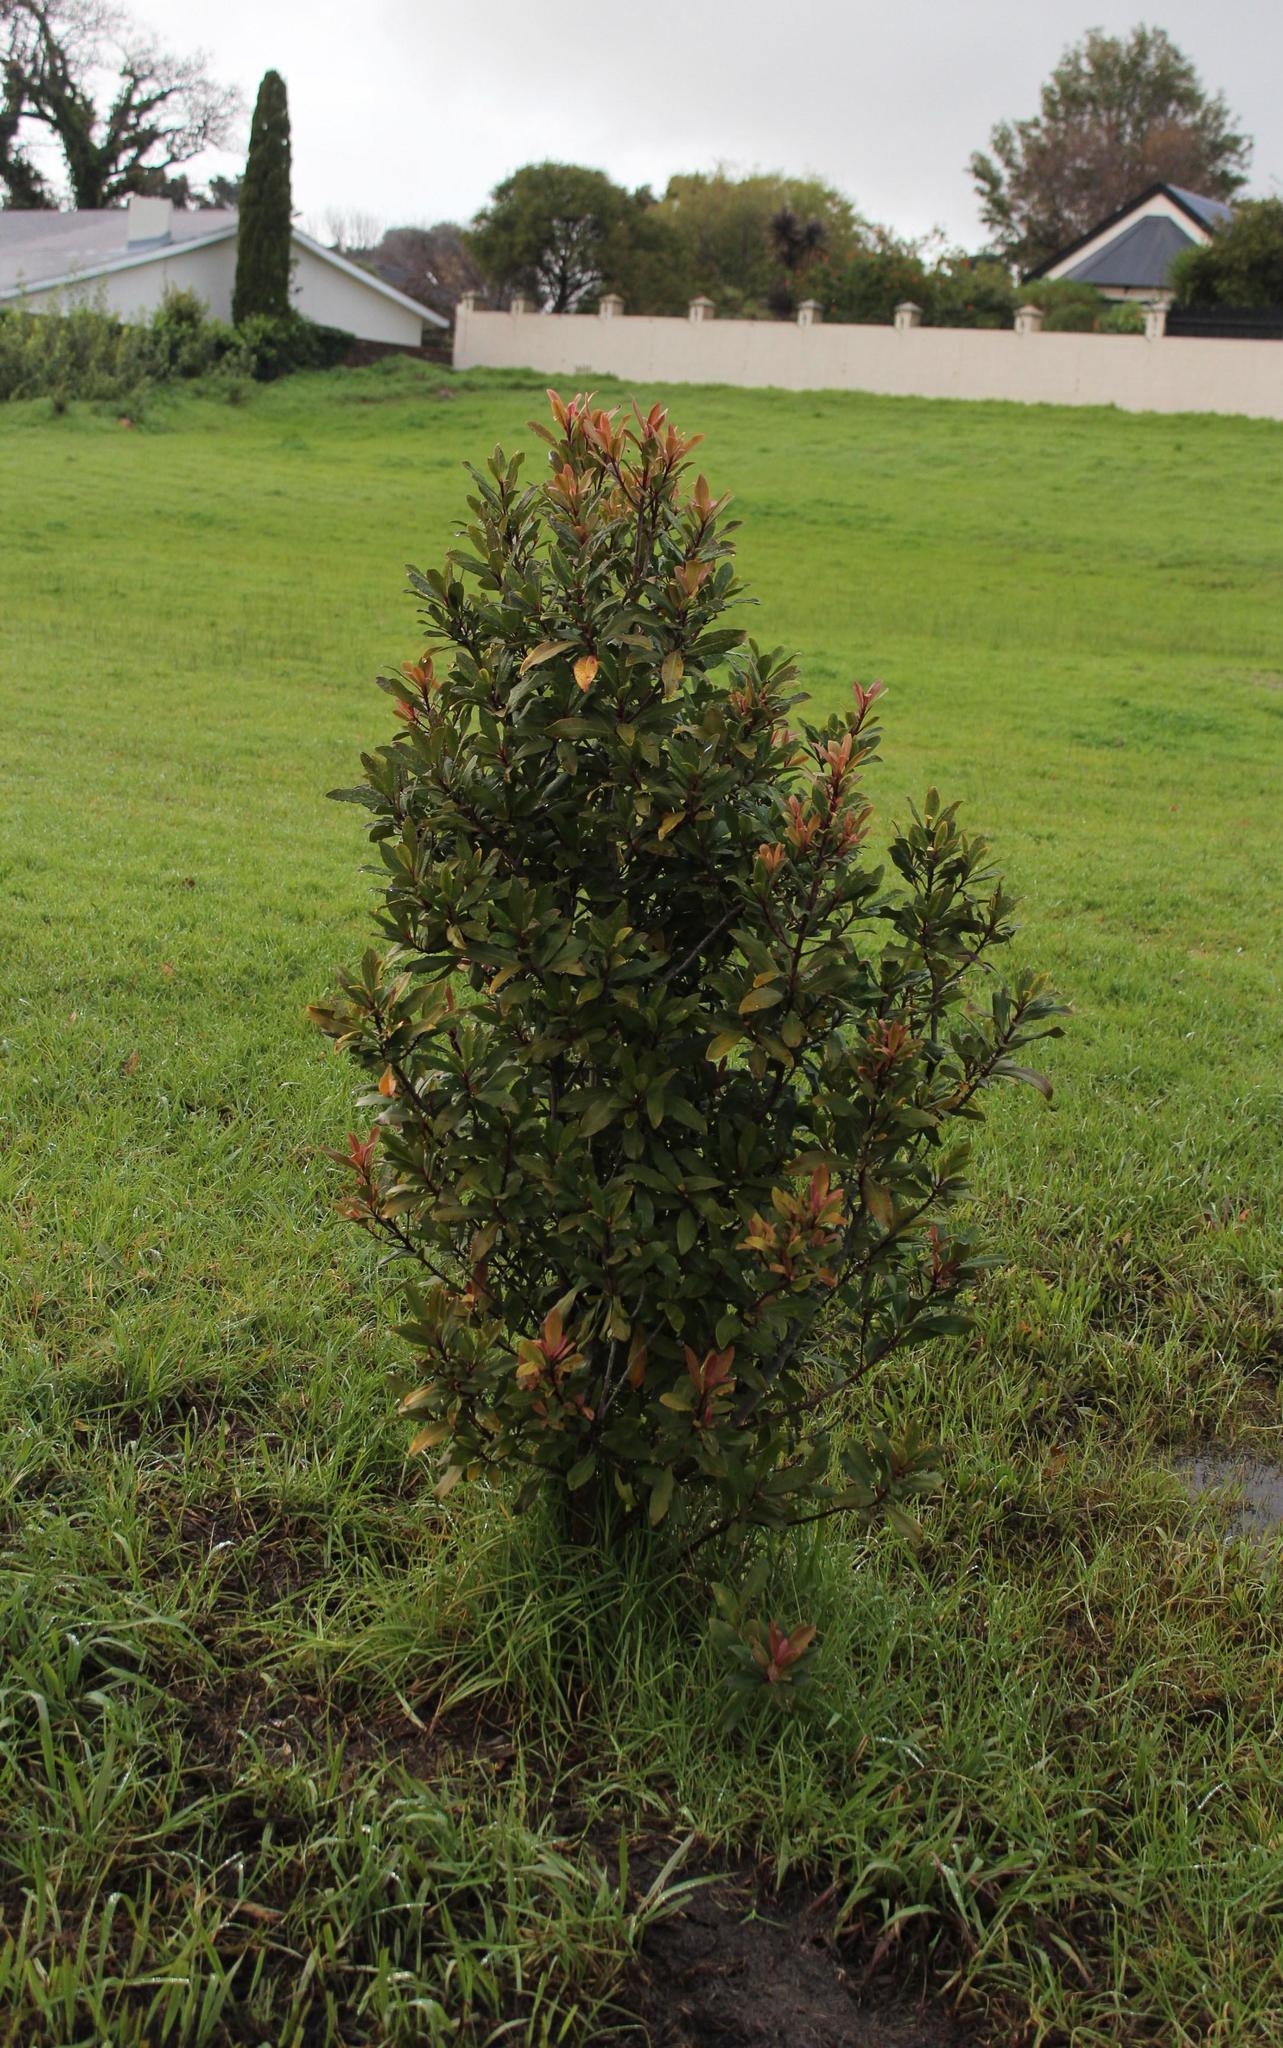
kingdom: Plantae
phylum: Tracheophyta
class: Magnoliopsida
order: Ericales
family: Primulaceae
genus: Myrsine
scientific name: Myrsine melanophloeos
